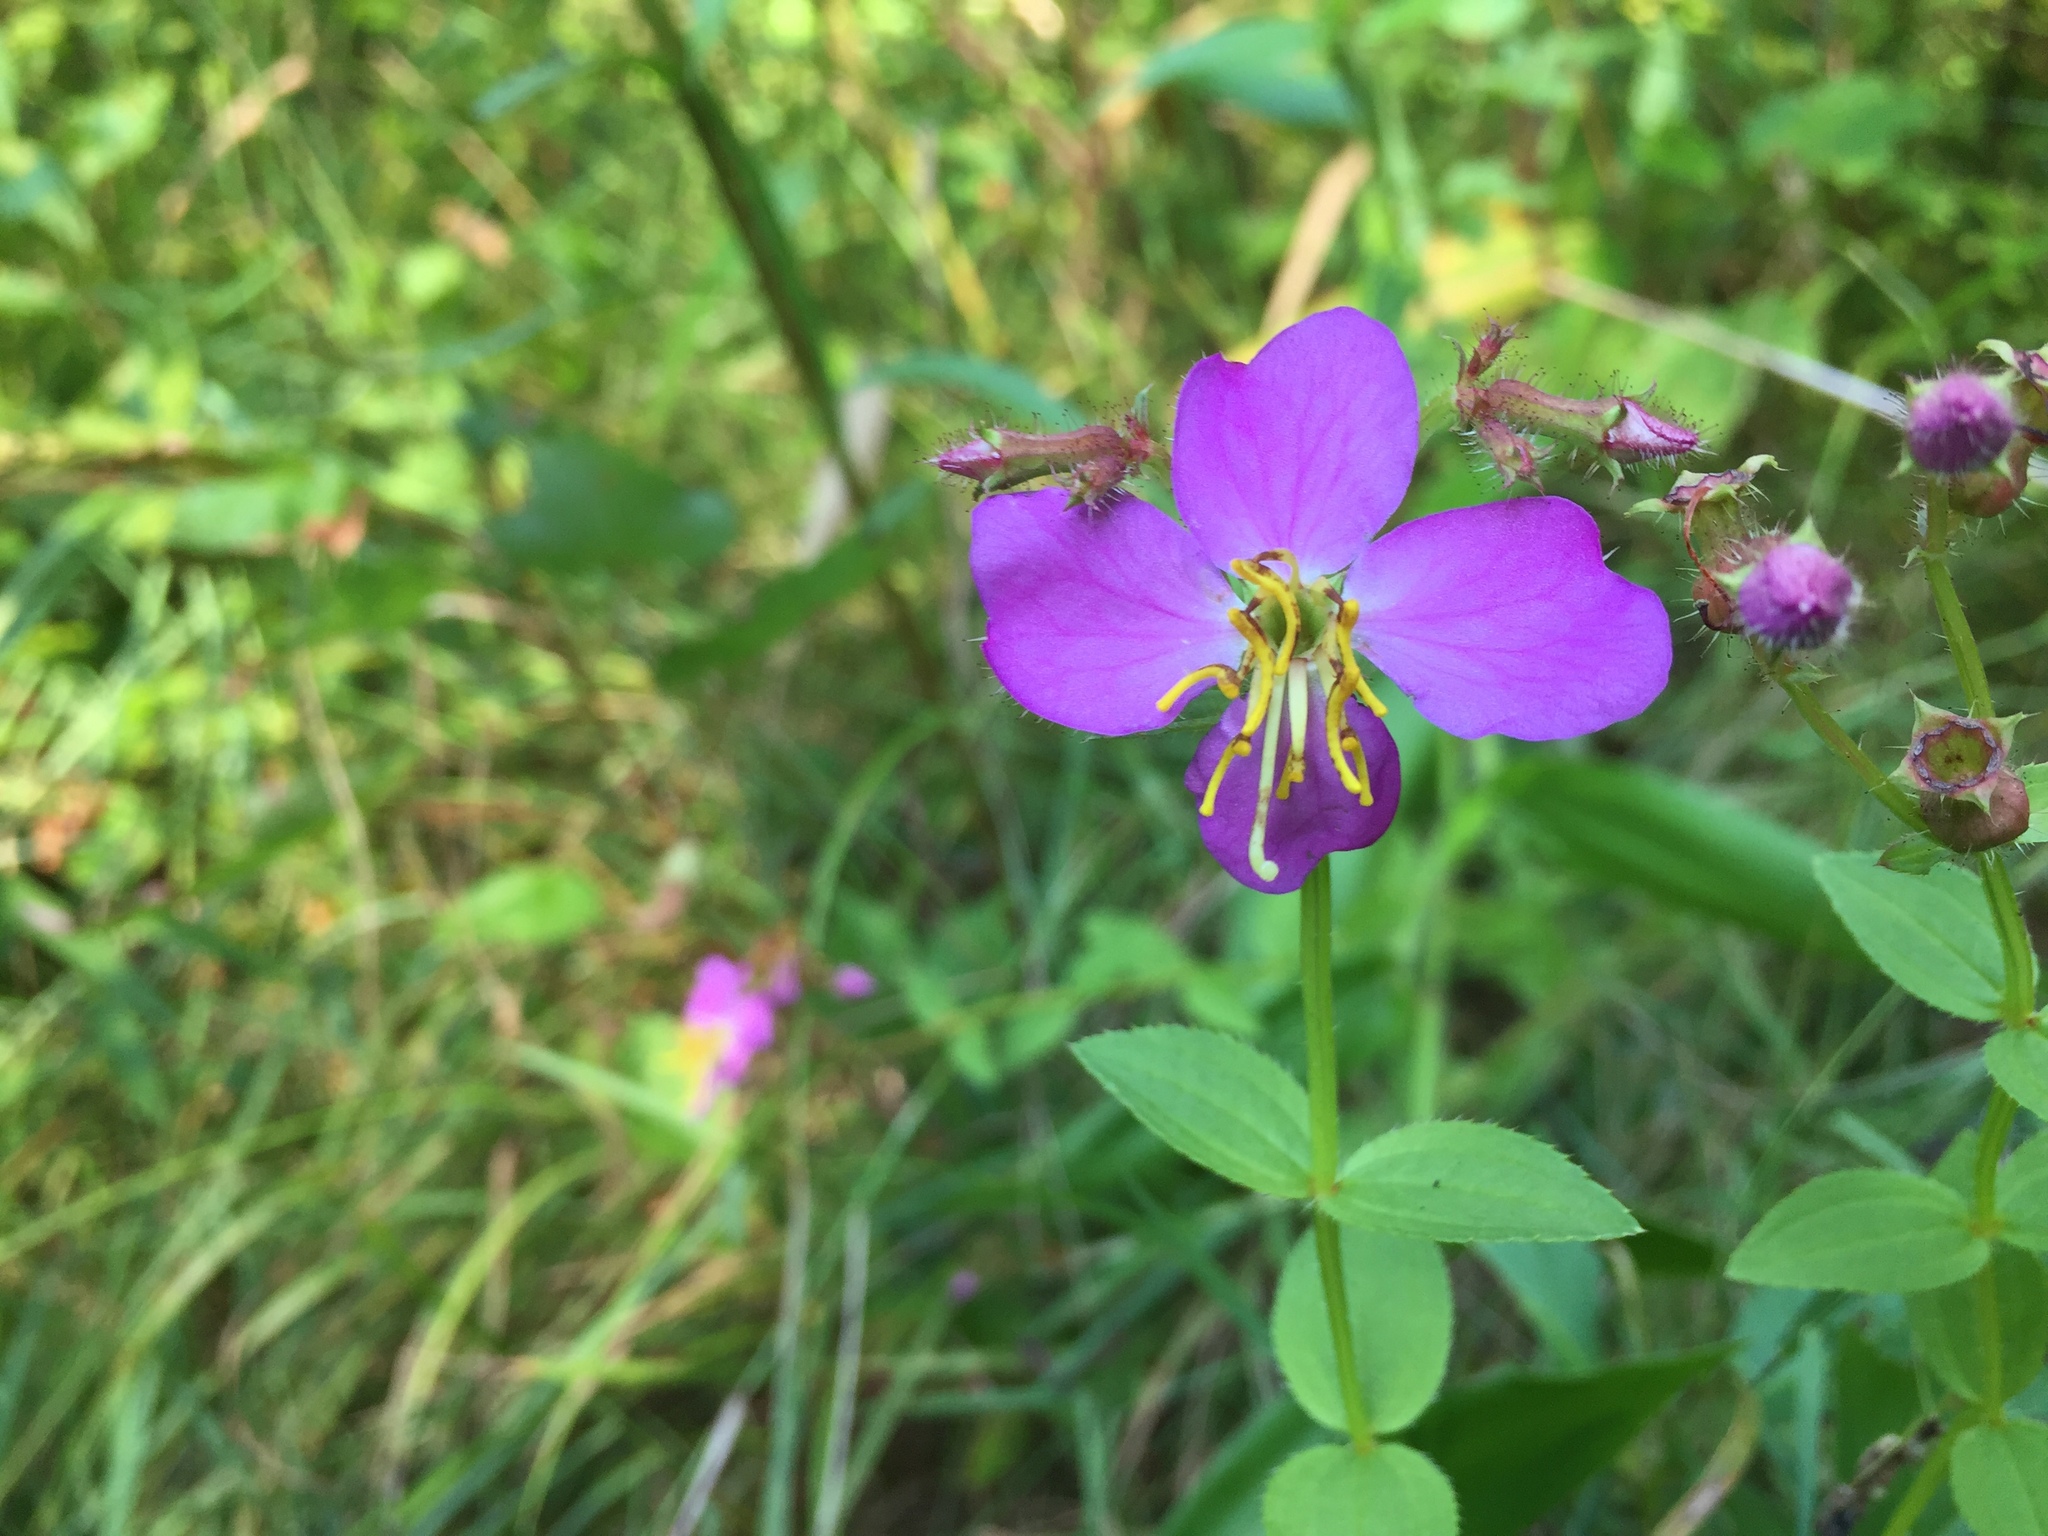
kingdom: Plantae
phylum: Tracheophyta
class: Magnoliopsida
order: Myrtales
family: Melastomataceae
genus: Rhexia
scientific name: Rhexia virginica
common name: Common meadow beauty
